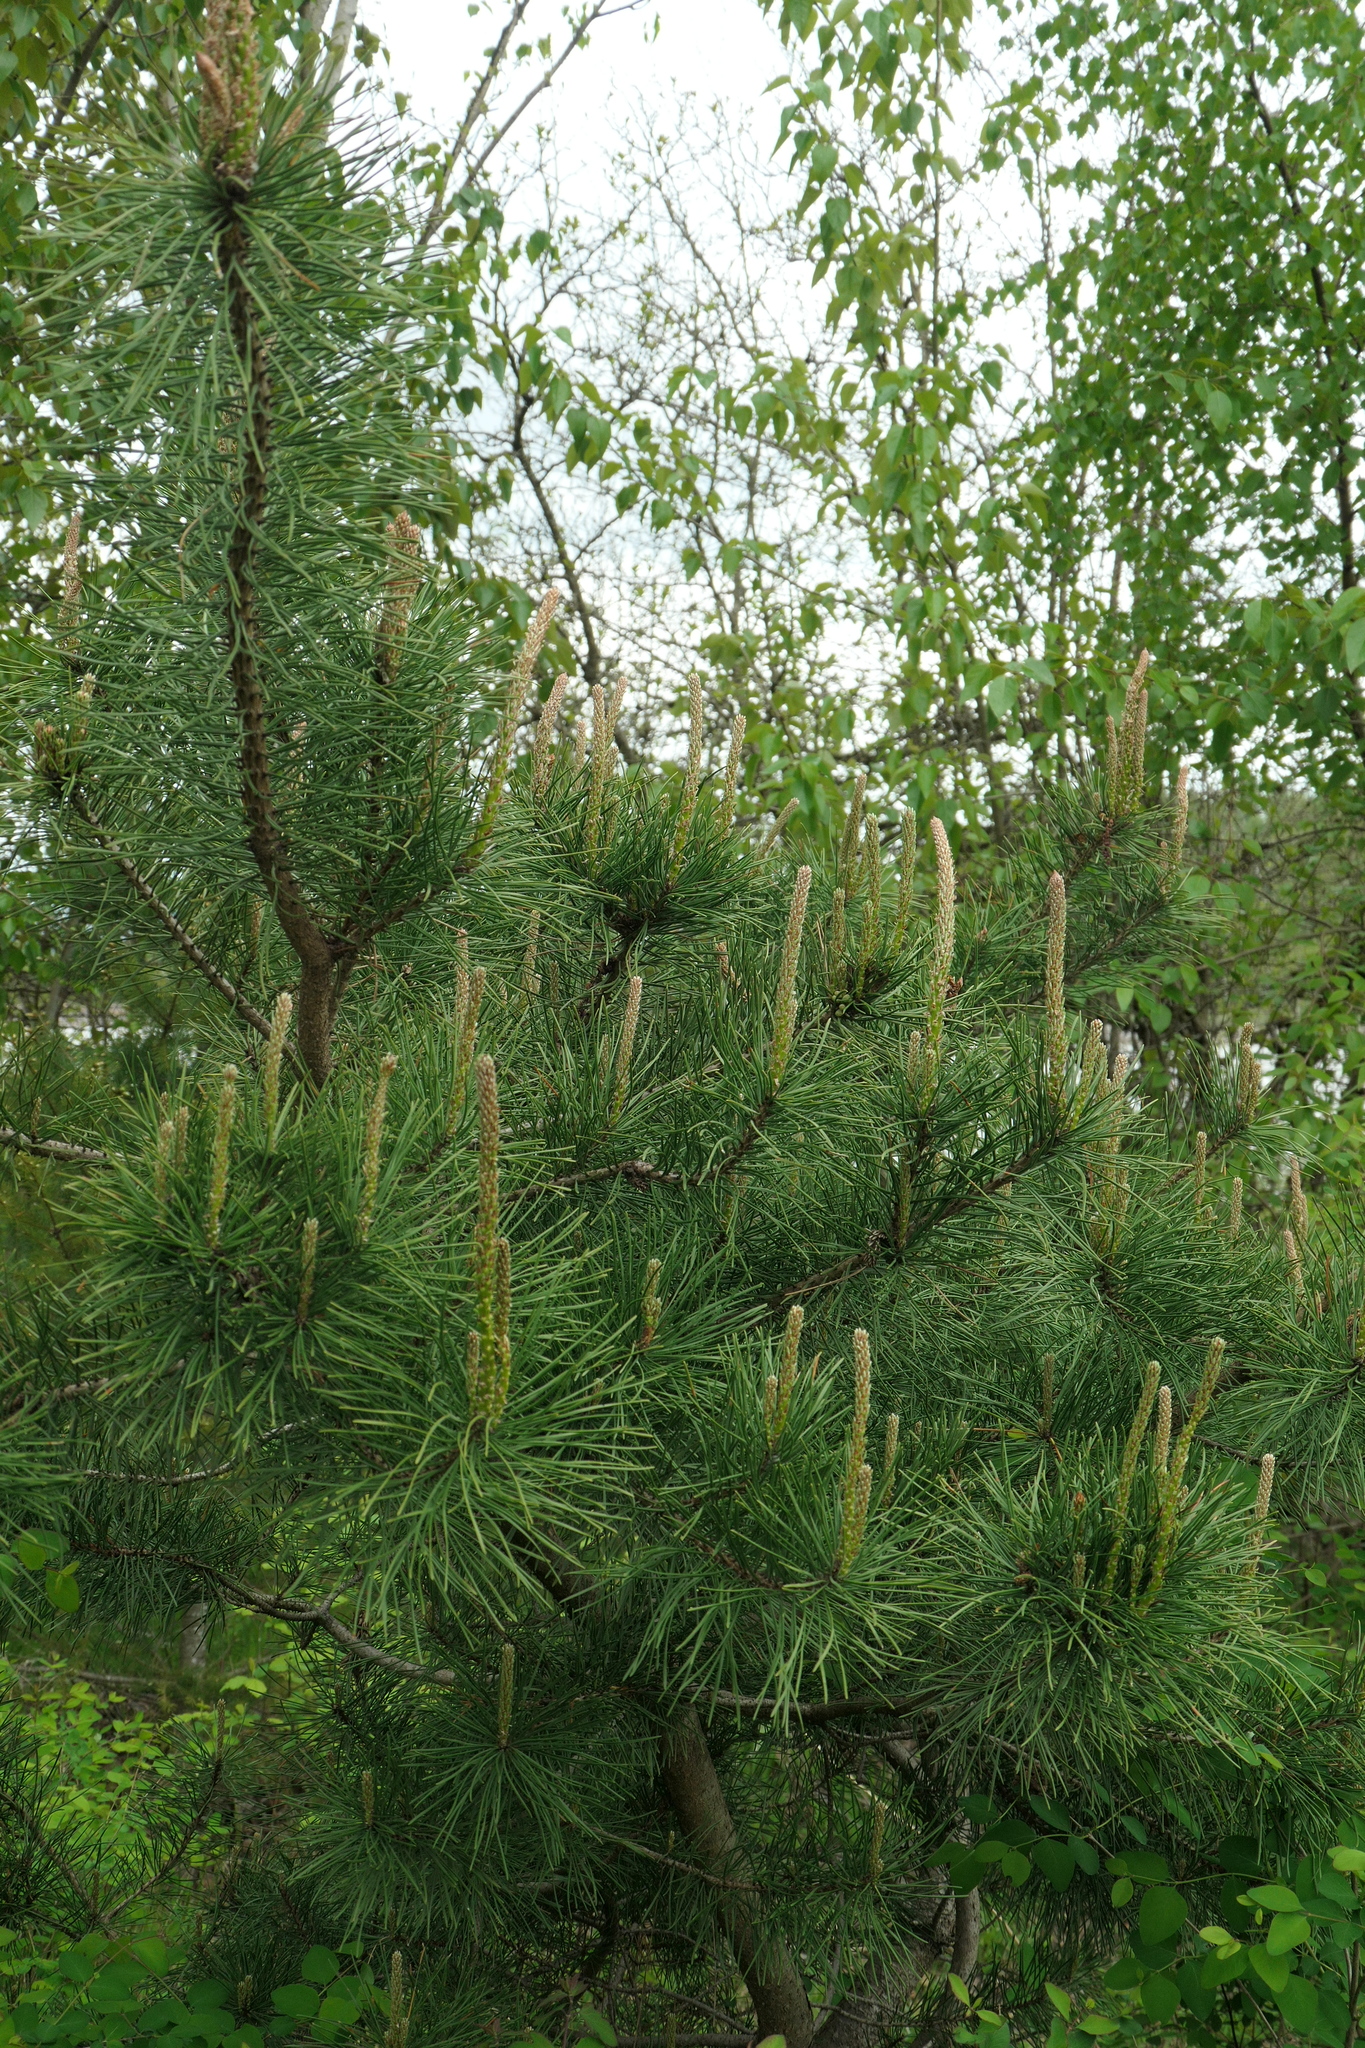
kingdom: Plantae
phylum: Tracheophyta
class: Pinopsida
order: Pinales
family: Pinaceae
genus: Pinus
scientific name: Pinus contorta
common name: Lodgepole pine
